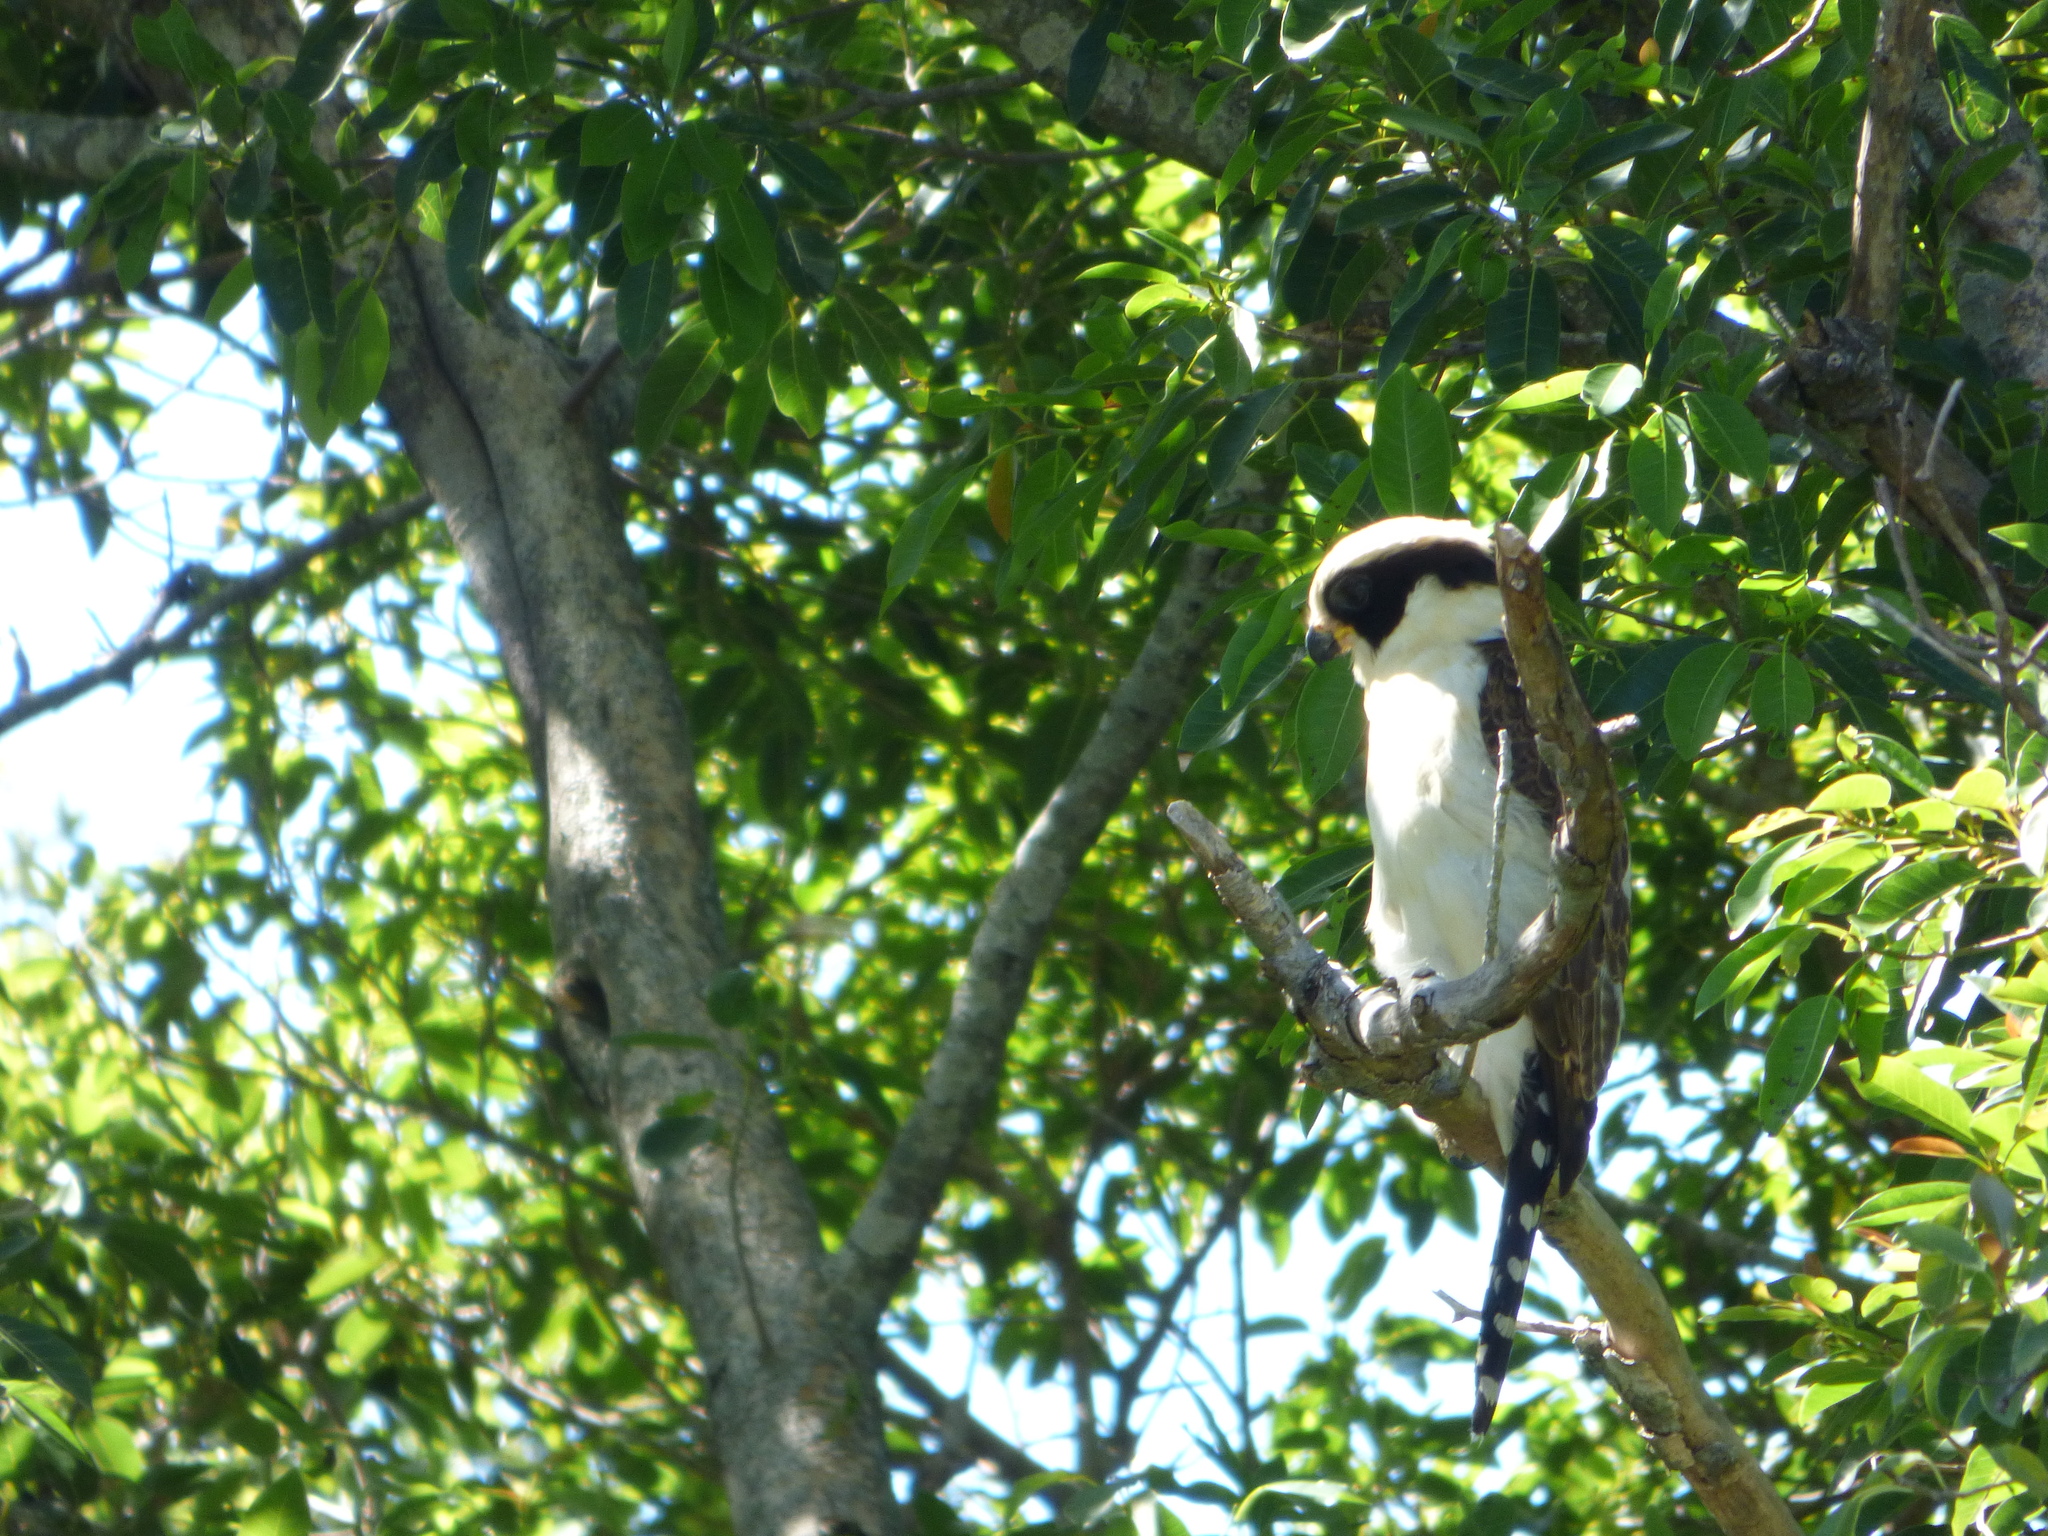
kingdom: Animalia
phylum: Chordata
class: Aves
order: Falconiformes
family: Falconidae
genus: Herpetotheres
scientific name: Herpetotheres cachinnans
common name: Laughing falcon
